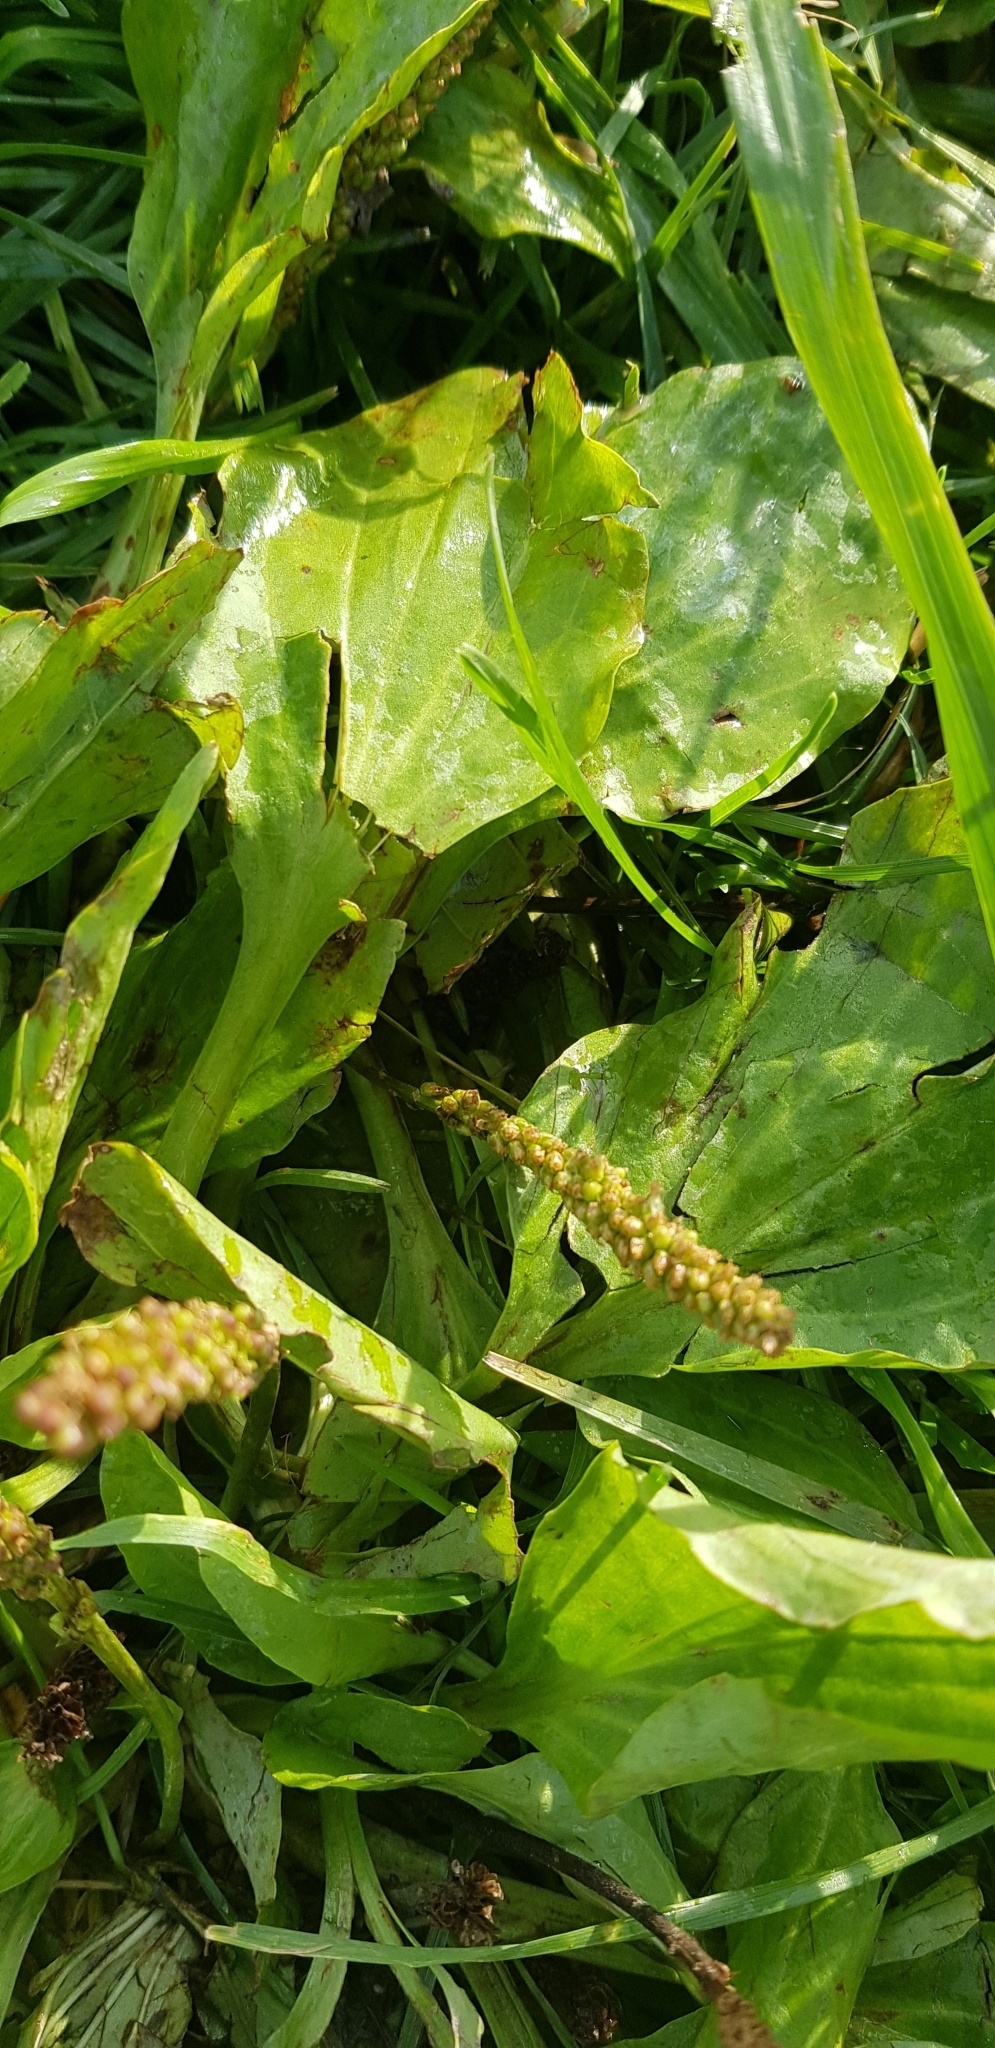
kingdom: Plantae
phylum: Tracheophyta
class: Magnoliopsida
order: Lamiales
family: Plantaginaceae
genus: Plantago
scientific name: Plantago major
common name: Common plantain
